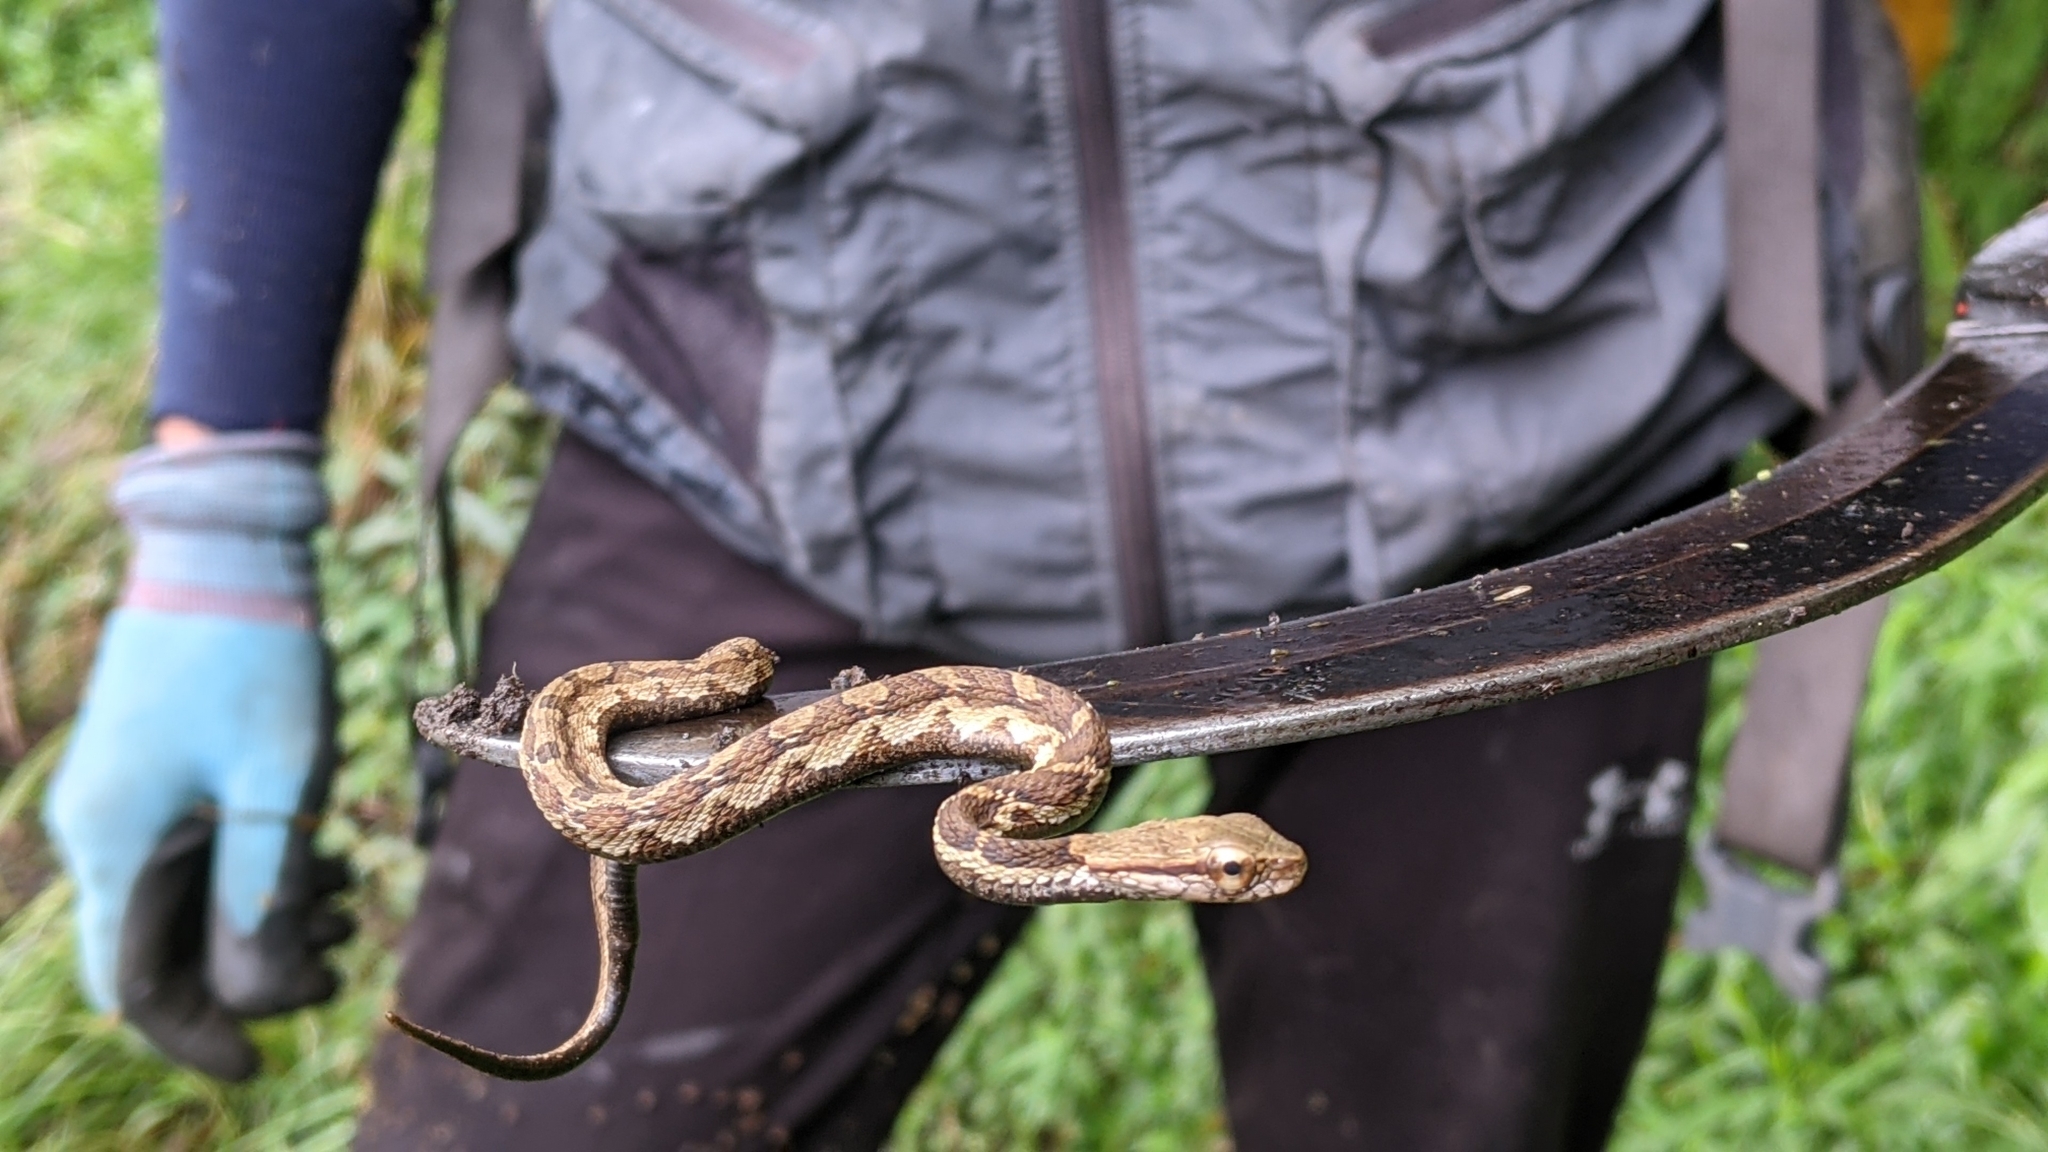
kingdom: Animalia
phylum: Chordata
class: Squamata
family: Colubridae
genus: Pseudagkistrodon
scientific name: Pseudagkistrodon rudis
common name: False habu
